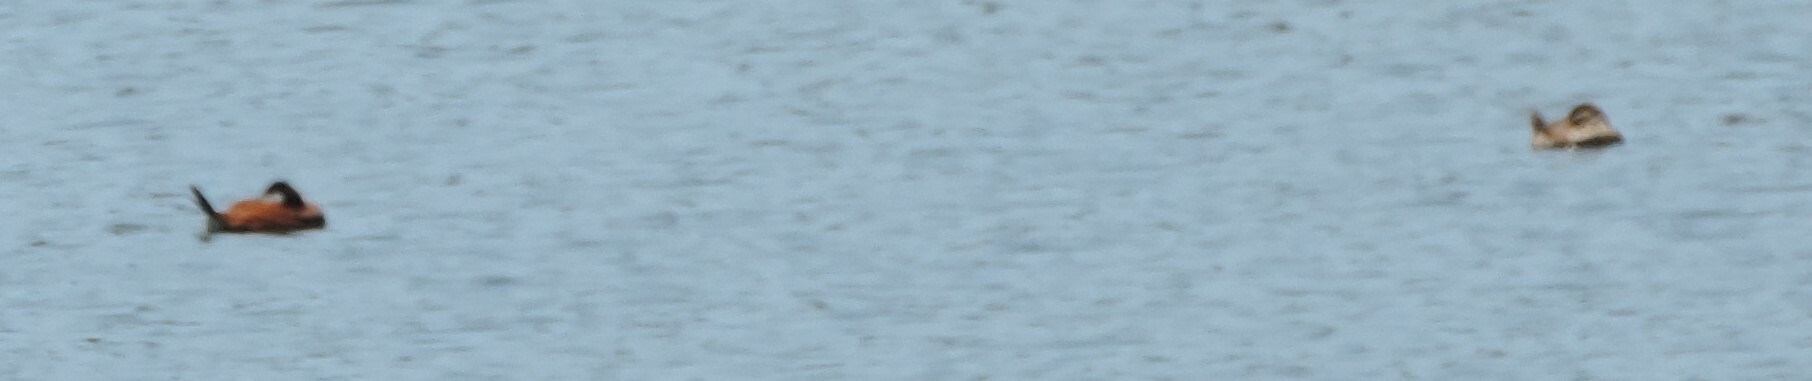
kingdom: Animalia
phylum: Chordata
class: Aves
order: Anseriformes
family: Anatidae
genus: Oxyura
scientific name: Oxyura jamaicensis
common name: Ruddy duck
